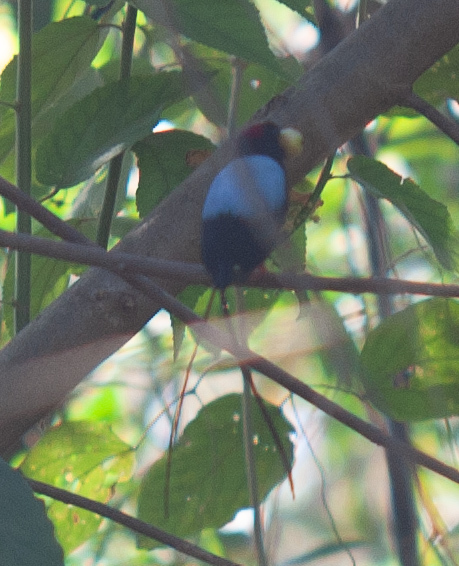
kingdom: Animalia
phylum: Chordata
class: Aves
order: Passeriformes
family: Pipridae
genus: Chiroxiphia
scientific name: Chiroxiphia linearis
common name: Long-tailed manakin
